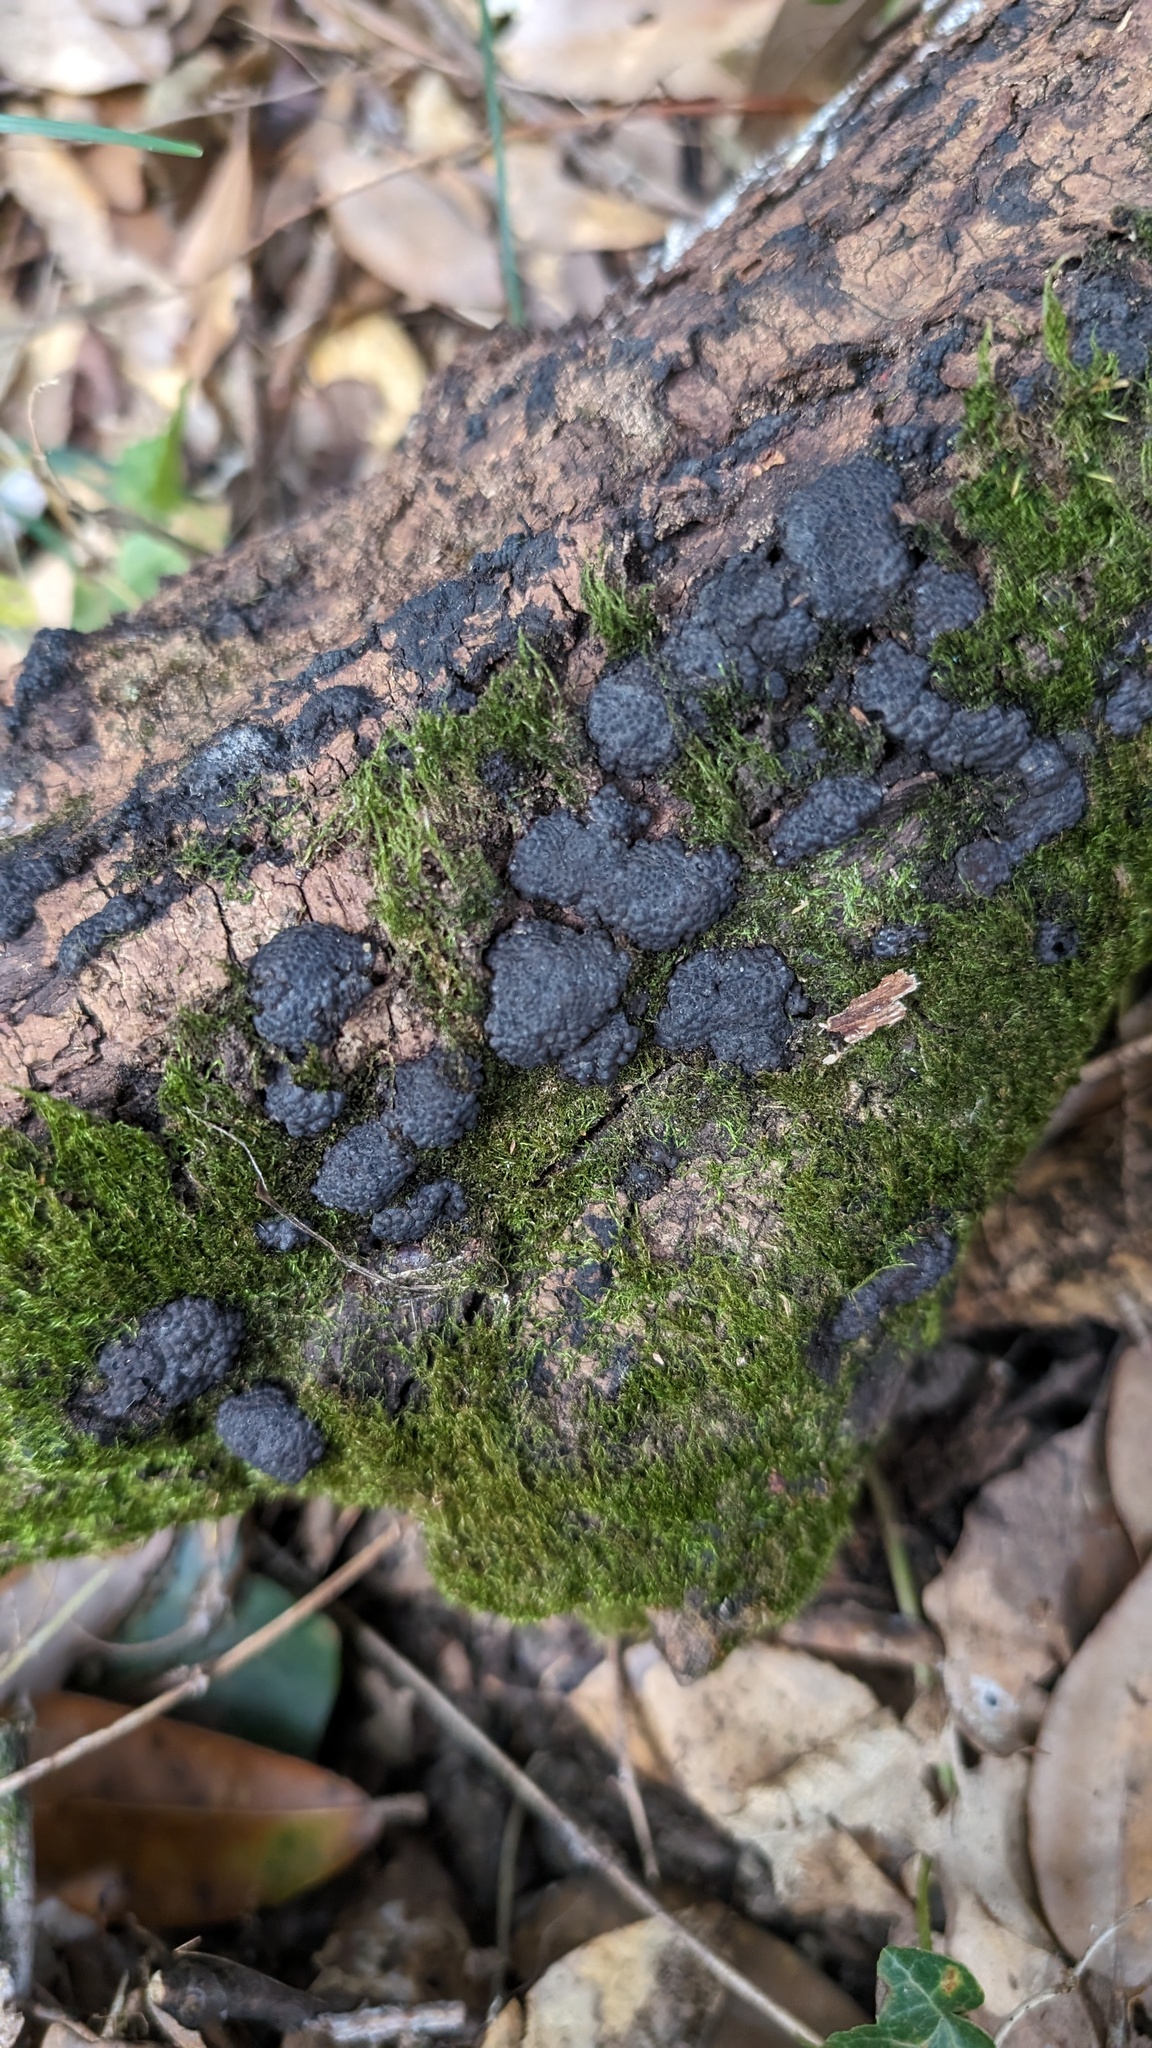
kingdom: Fungi
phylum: Ascomycota
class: Sordariomycetes
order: Xylariales
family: Hypoxylaceae
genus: Annulohypoxylon
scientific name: Annulohypoxylon truncatum
